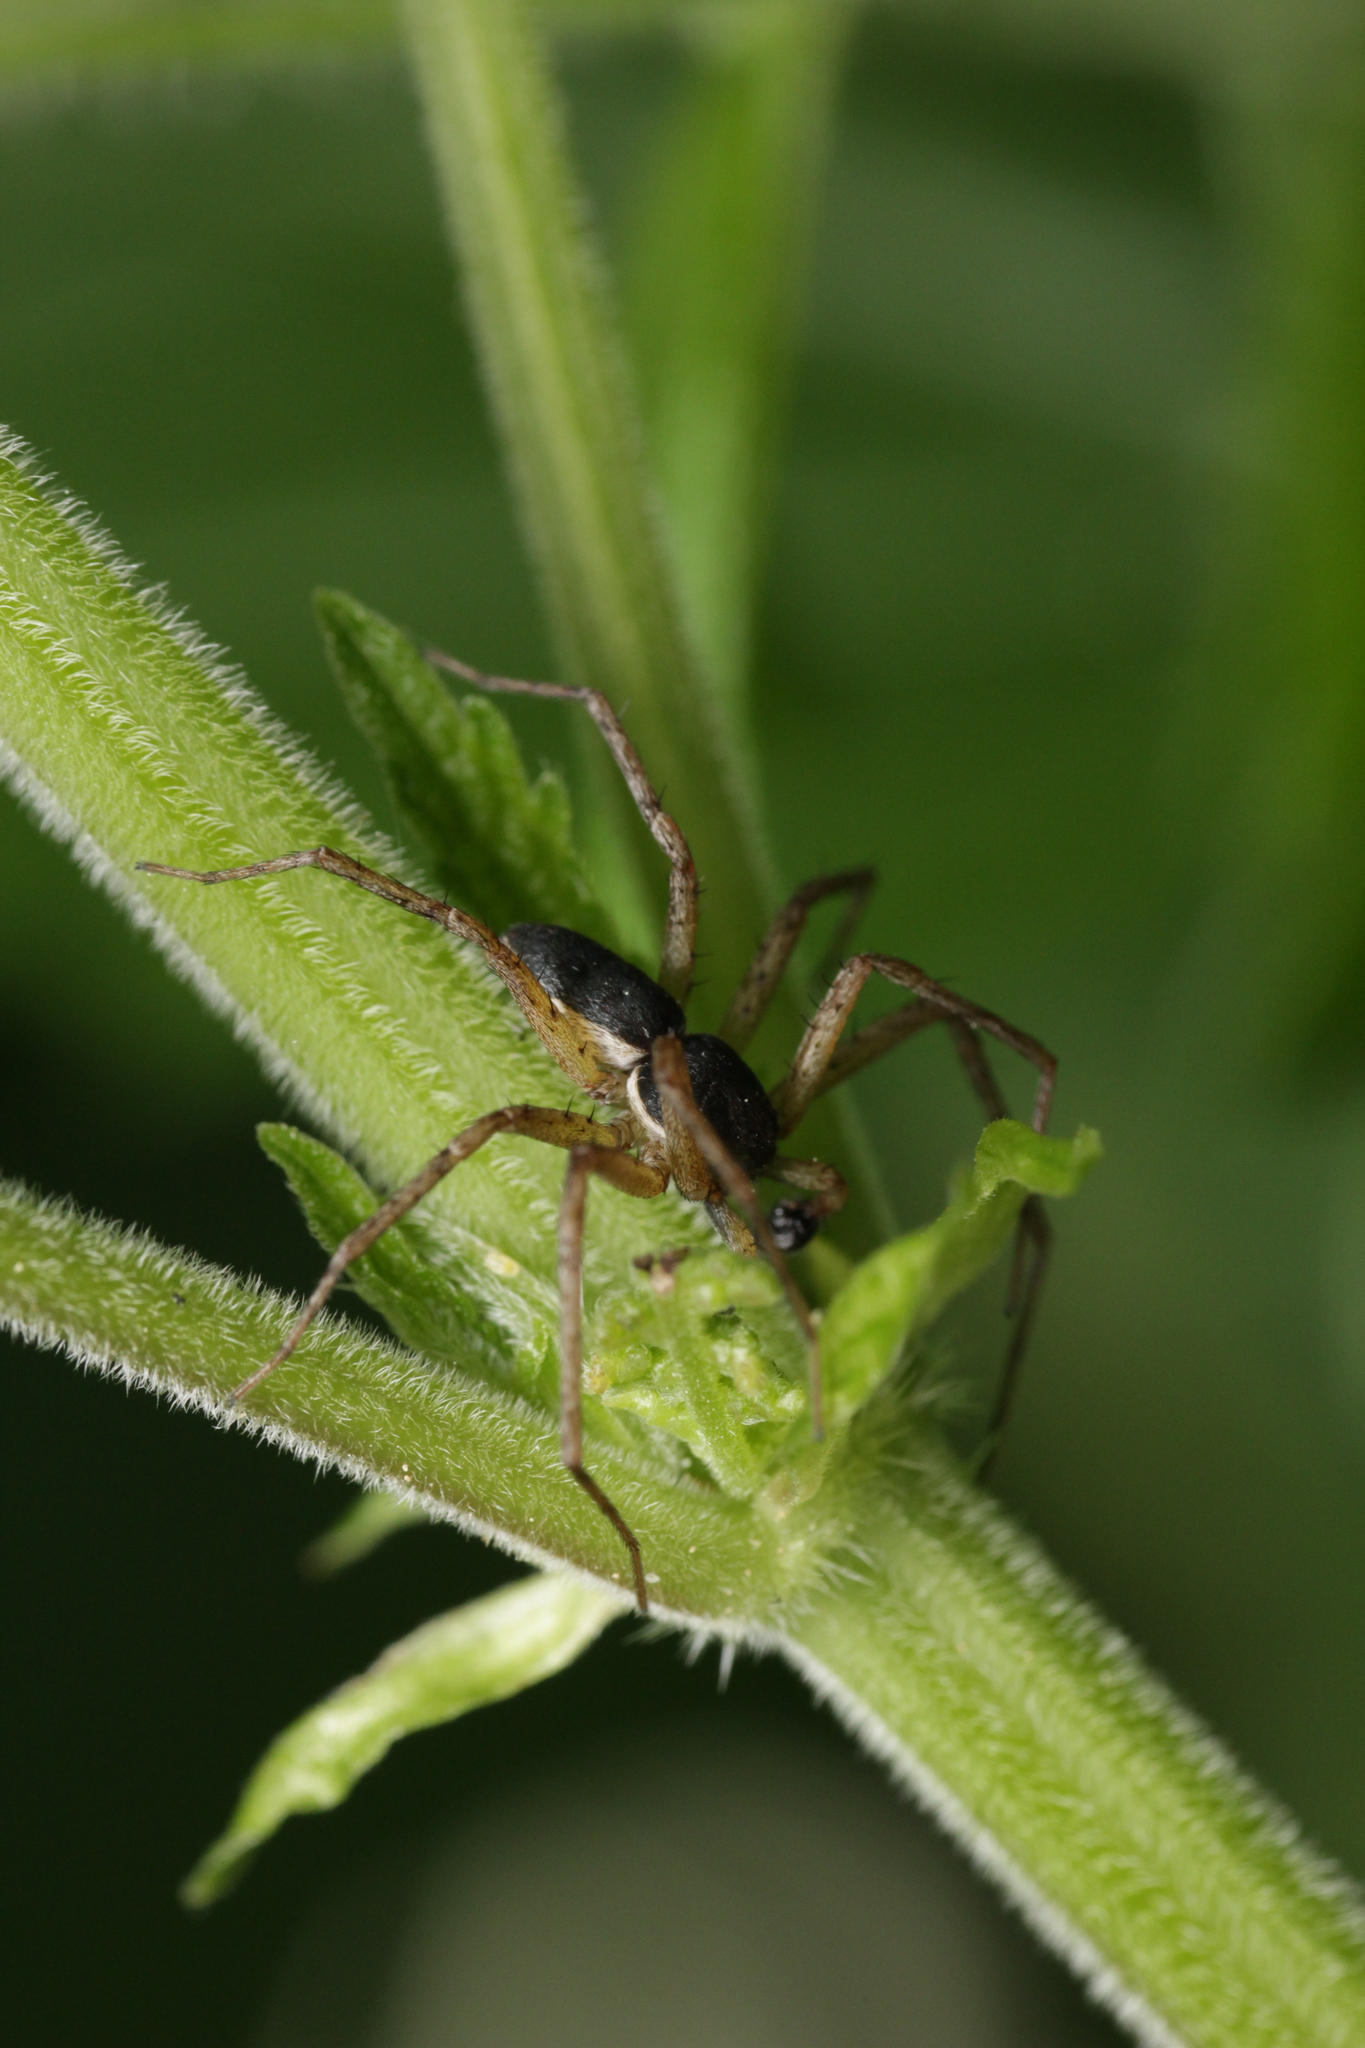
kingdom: Animalia
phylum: Arthropoda
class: Arachnida
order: Araneae
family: Philodromidae
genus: Philodromus
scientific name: Philodromus dispar
